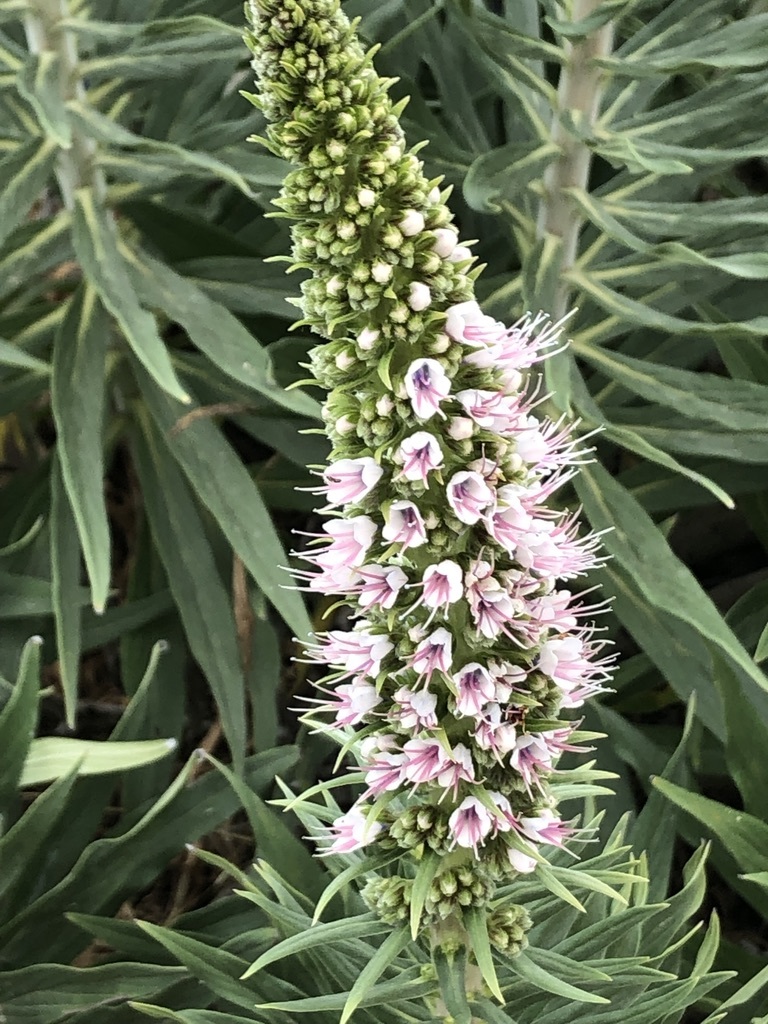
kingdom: Plantae
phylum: Tracheophyta
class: Magnoliopsida
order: Boraginales
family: Boraginaceae
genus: Echium
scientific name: Echium candicans
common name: Pride of madeira
